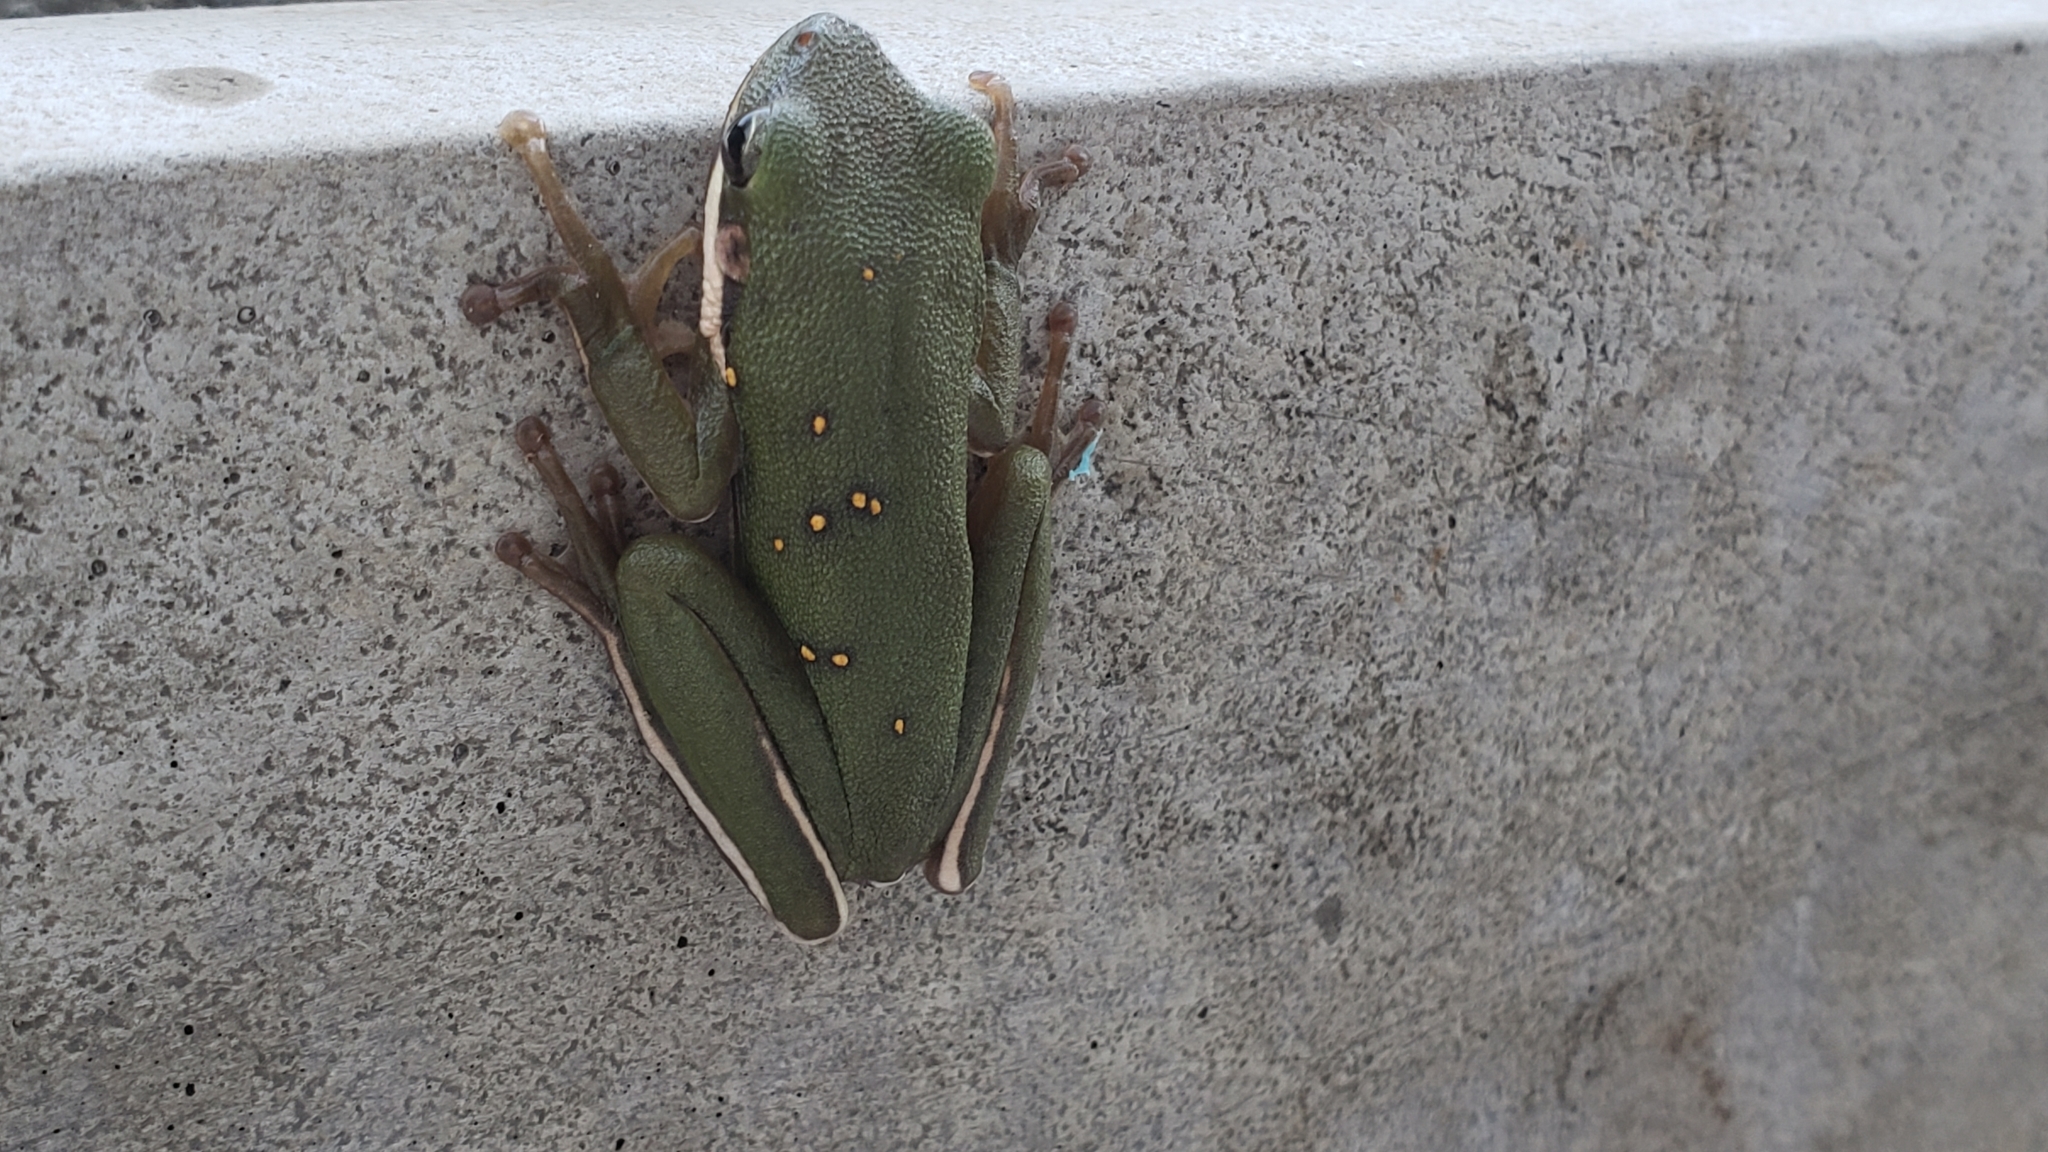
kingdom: Animalia
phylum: Chordata
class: Amphibia
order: Anura
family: Hylidae
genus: Dryophytes
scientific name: Dryophytes cinereus
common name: Green treefrog
